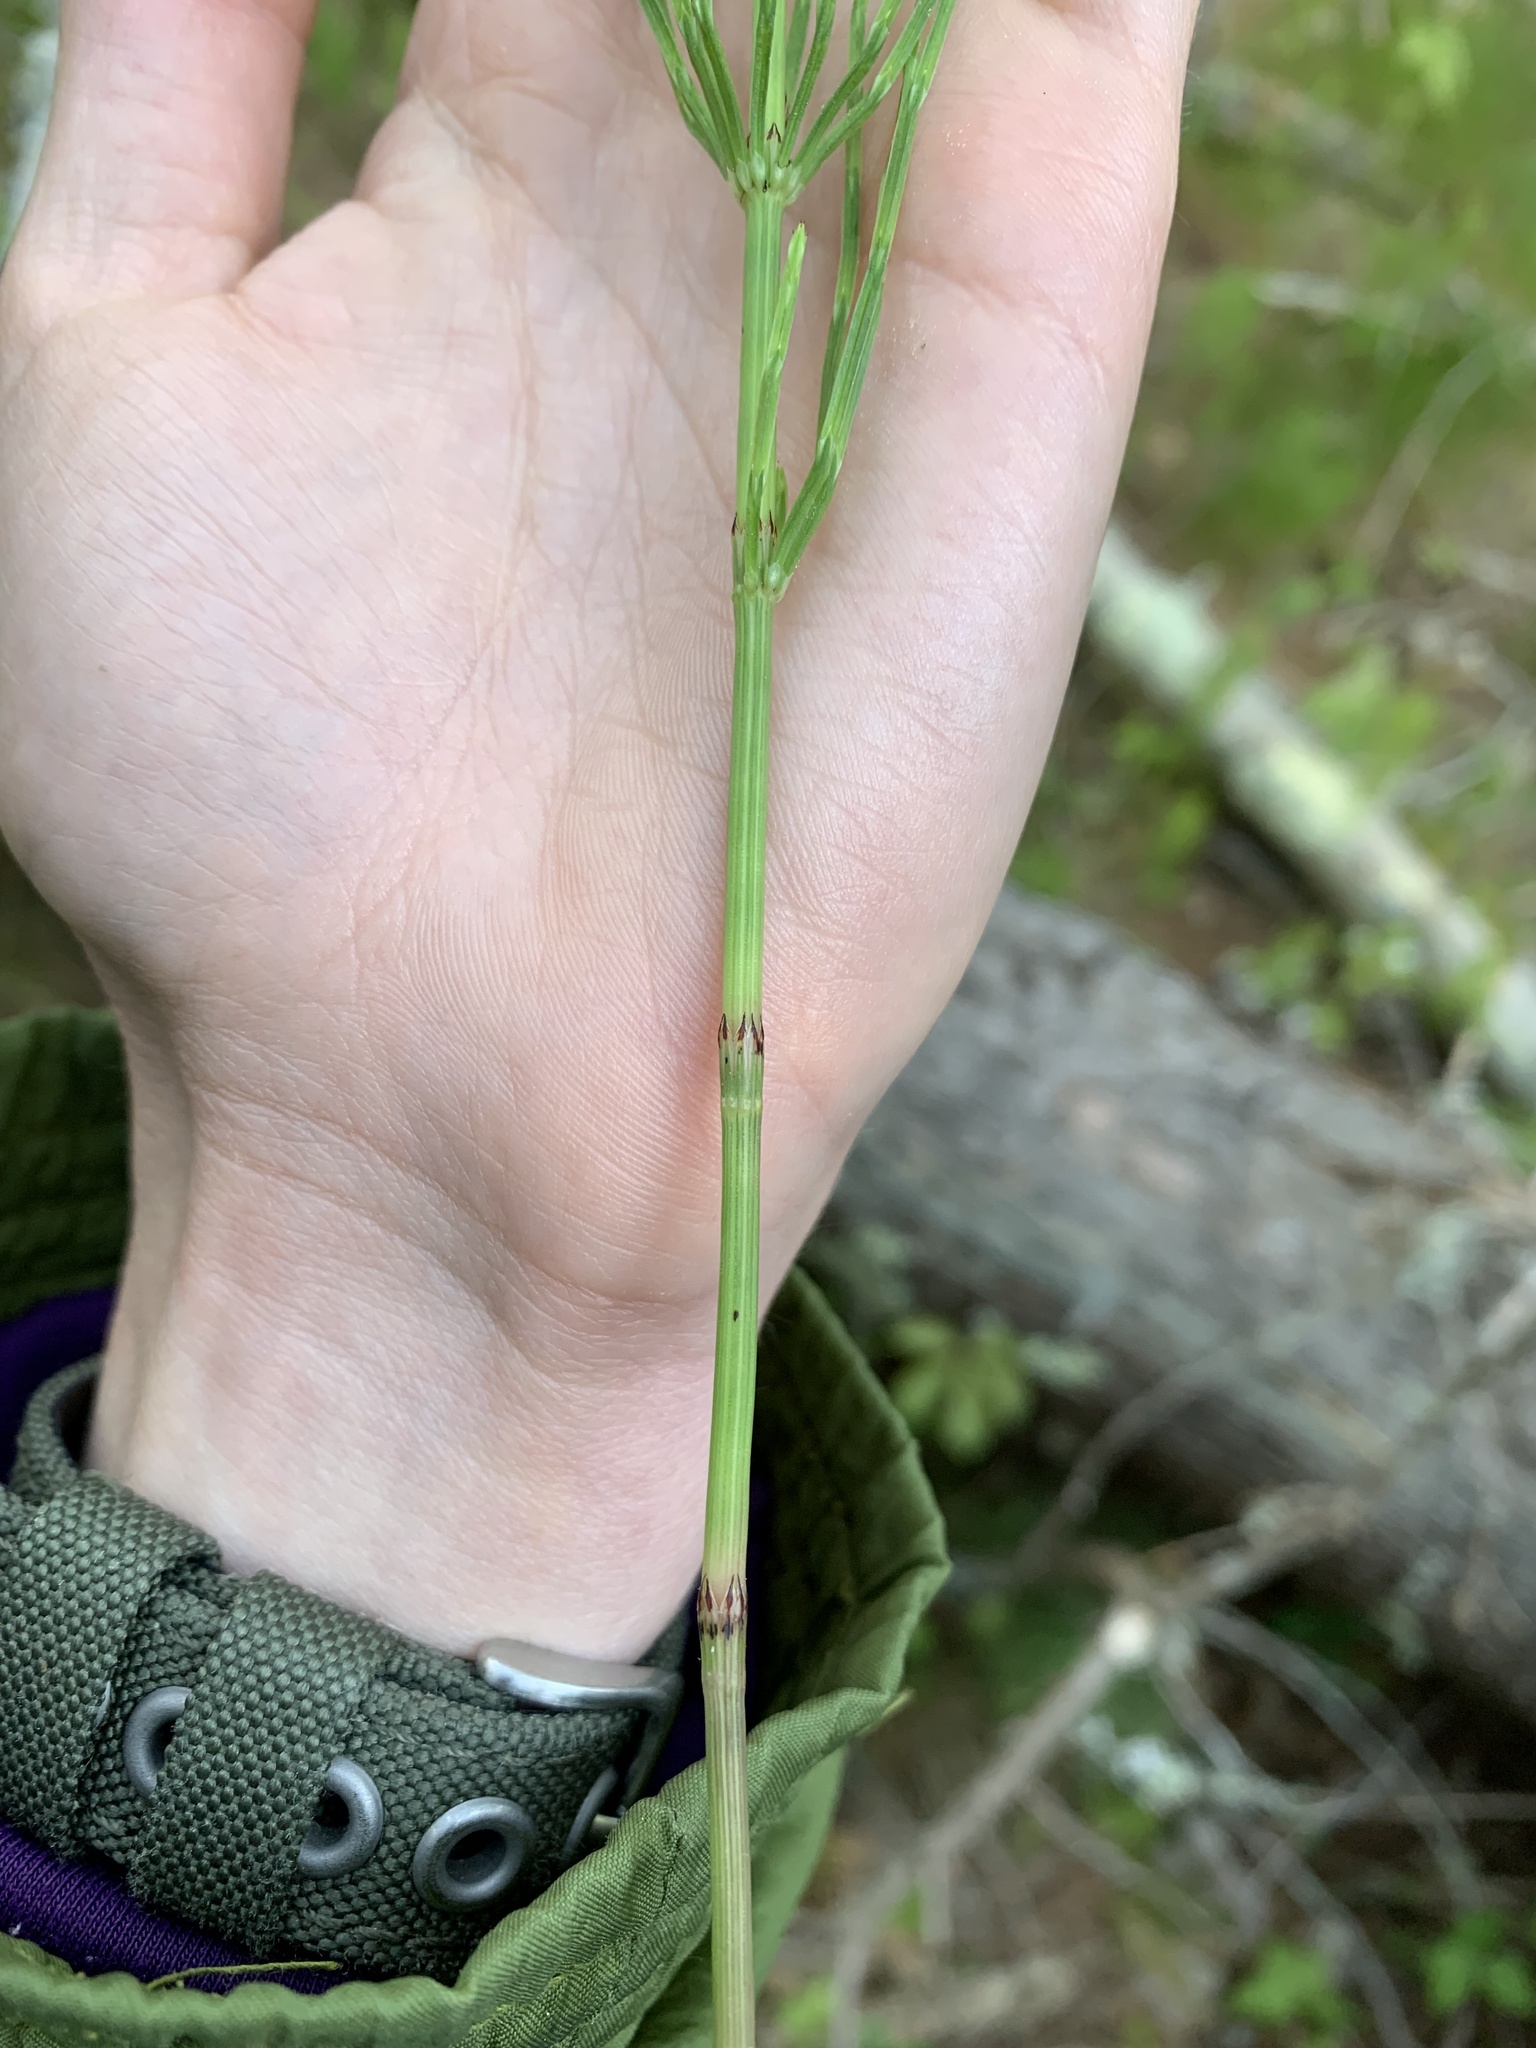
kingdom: Plantae
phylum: Tracheophyta
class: Polypodiopsida
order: Equisetales
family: Equisetaceae
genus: Equisetum
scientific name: Equisetum arvense
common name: Field horsetail
